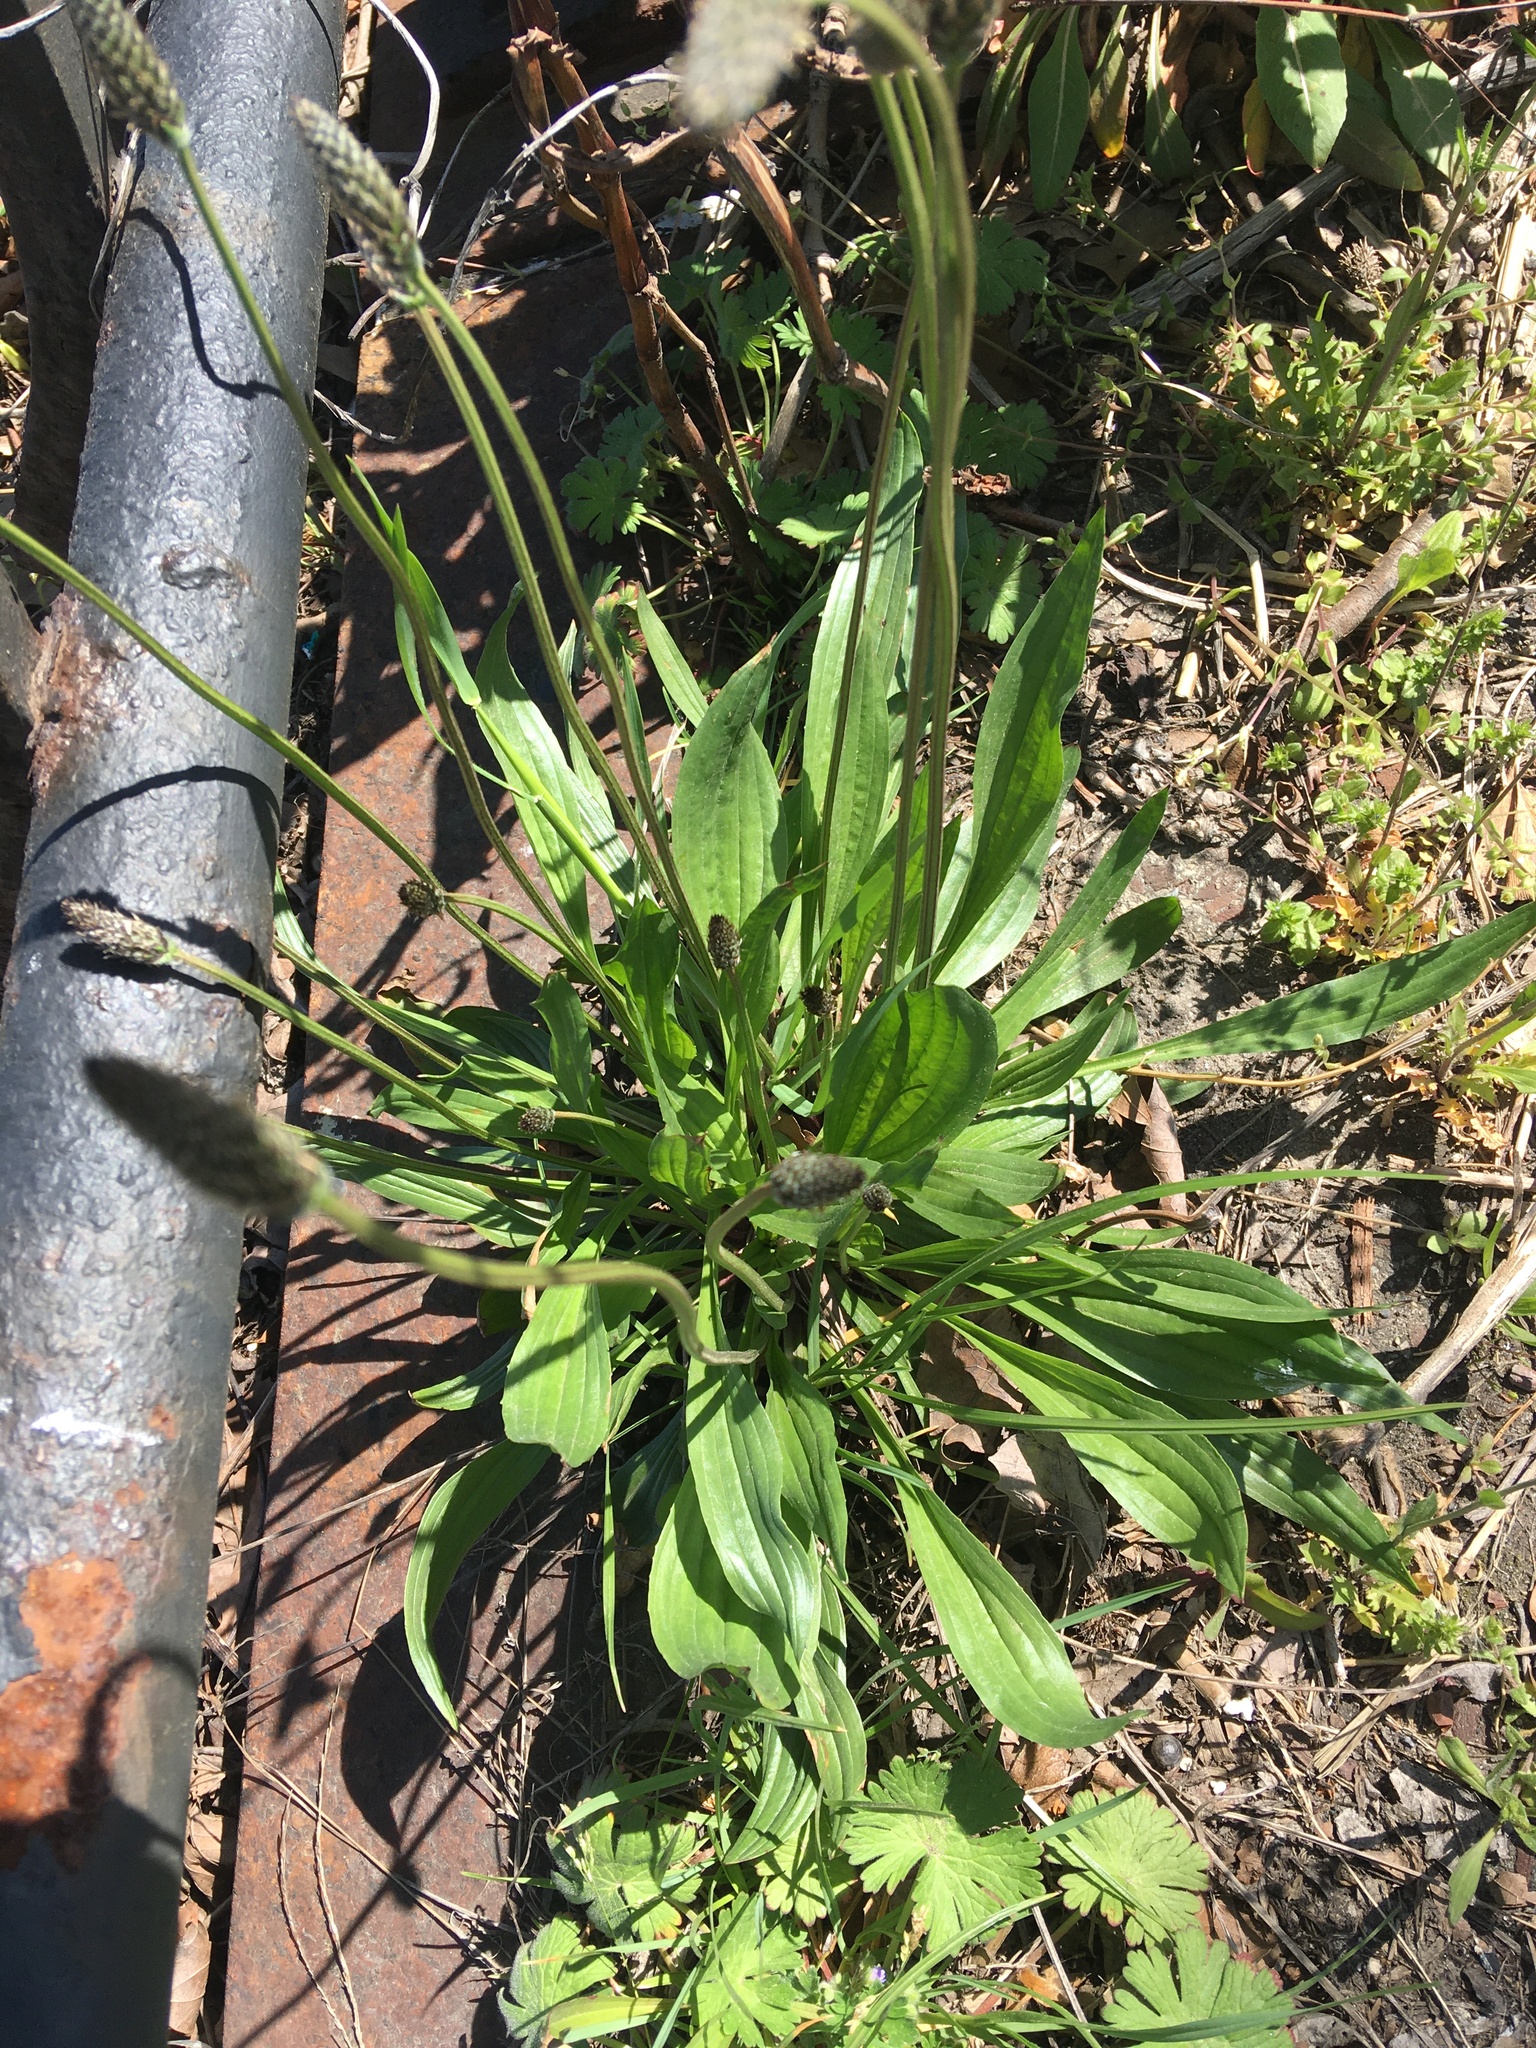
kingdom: Plantae
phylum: Tracheophyta
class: Magnoliopsida
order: Lamiales
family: Plantaginaceae
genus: Plantago
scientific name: Plantago lanceolata
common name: Ribwort plantain
